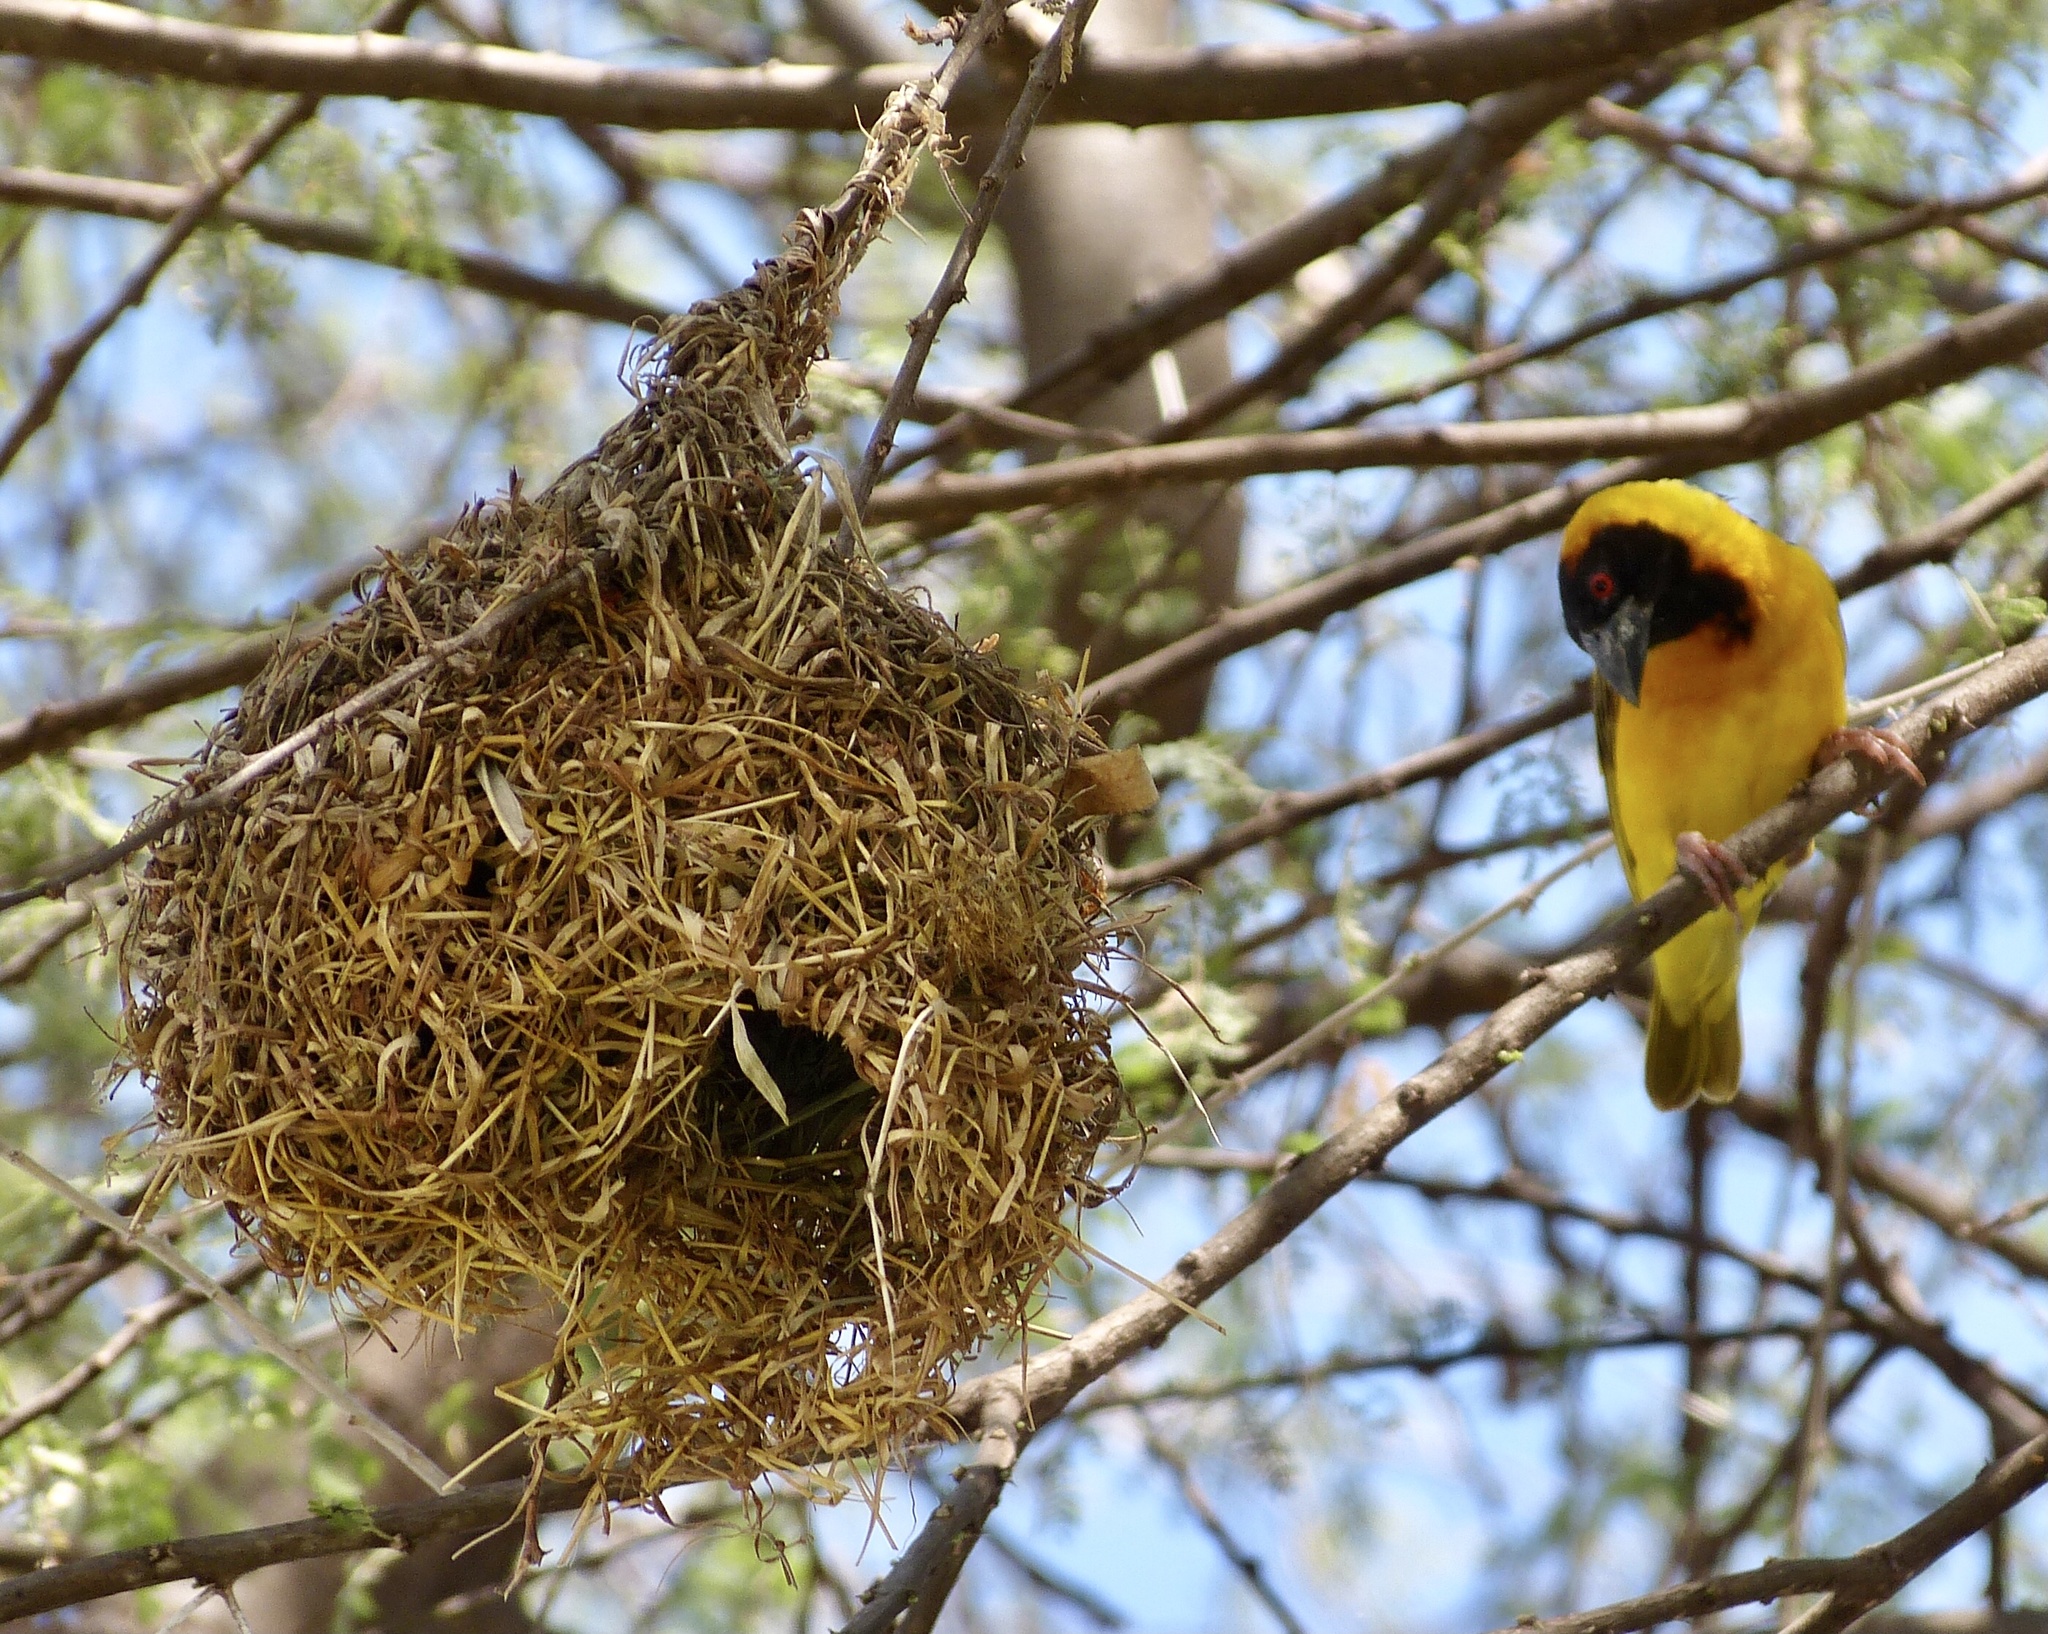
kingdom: Animalia
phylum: Chordata
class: Aves
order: Passeriformes
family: Ploceidae
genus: Ploceus
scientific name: Ploceus cucullatus
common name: Village weaver
